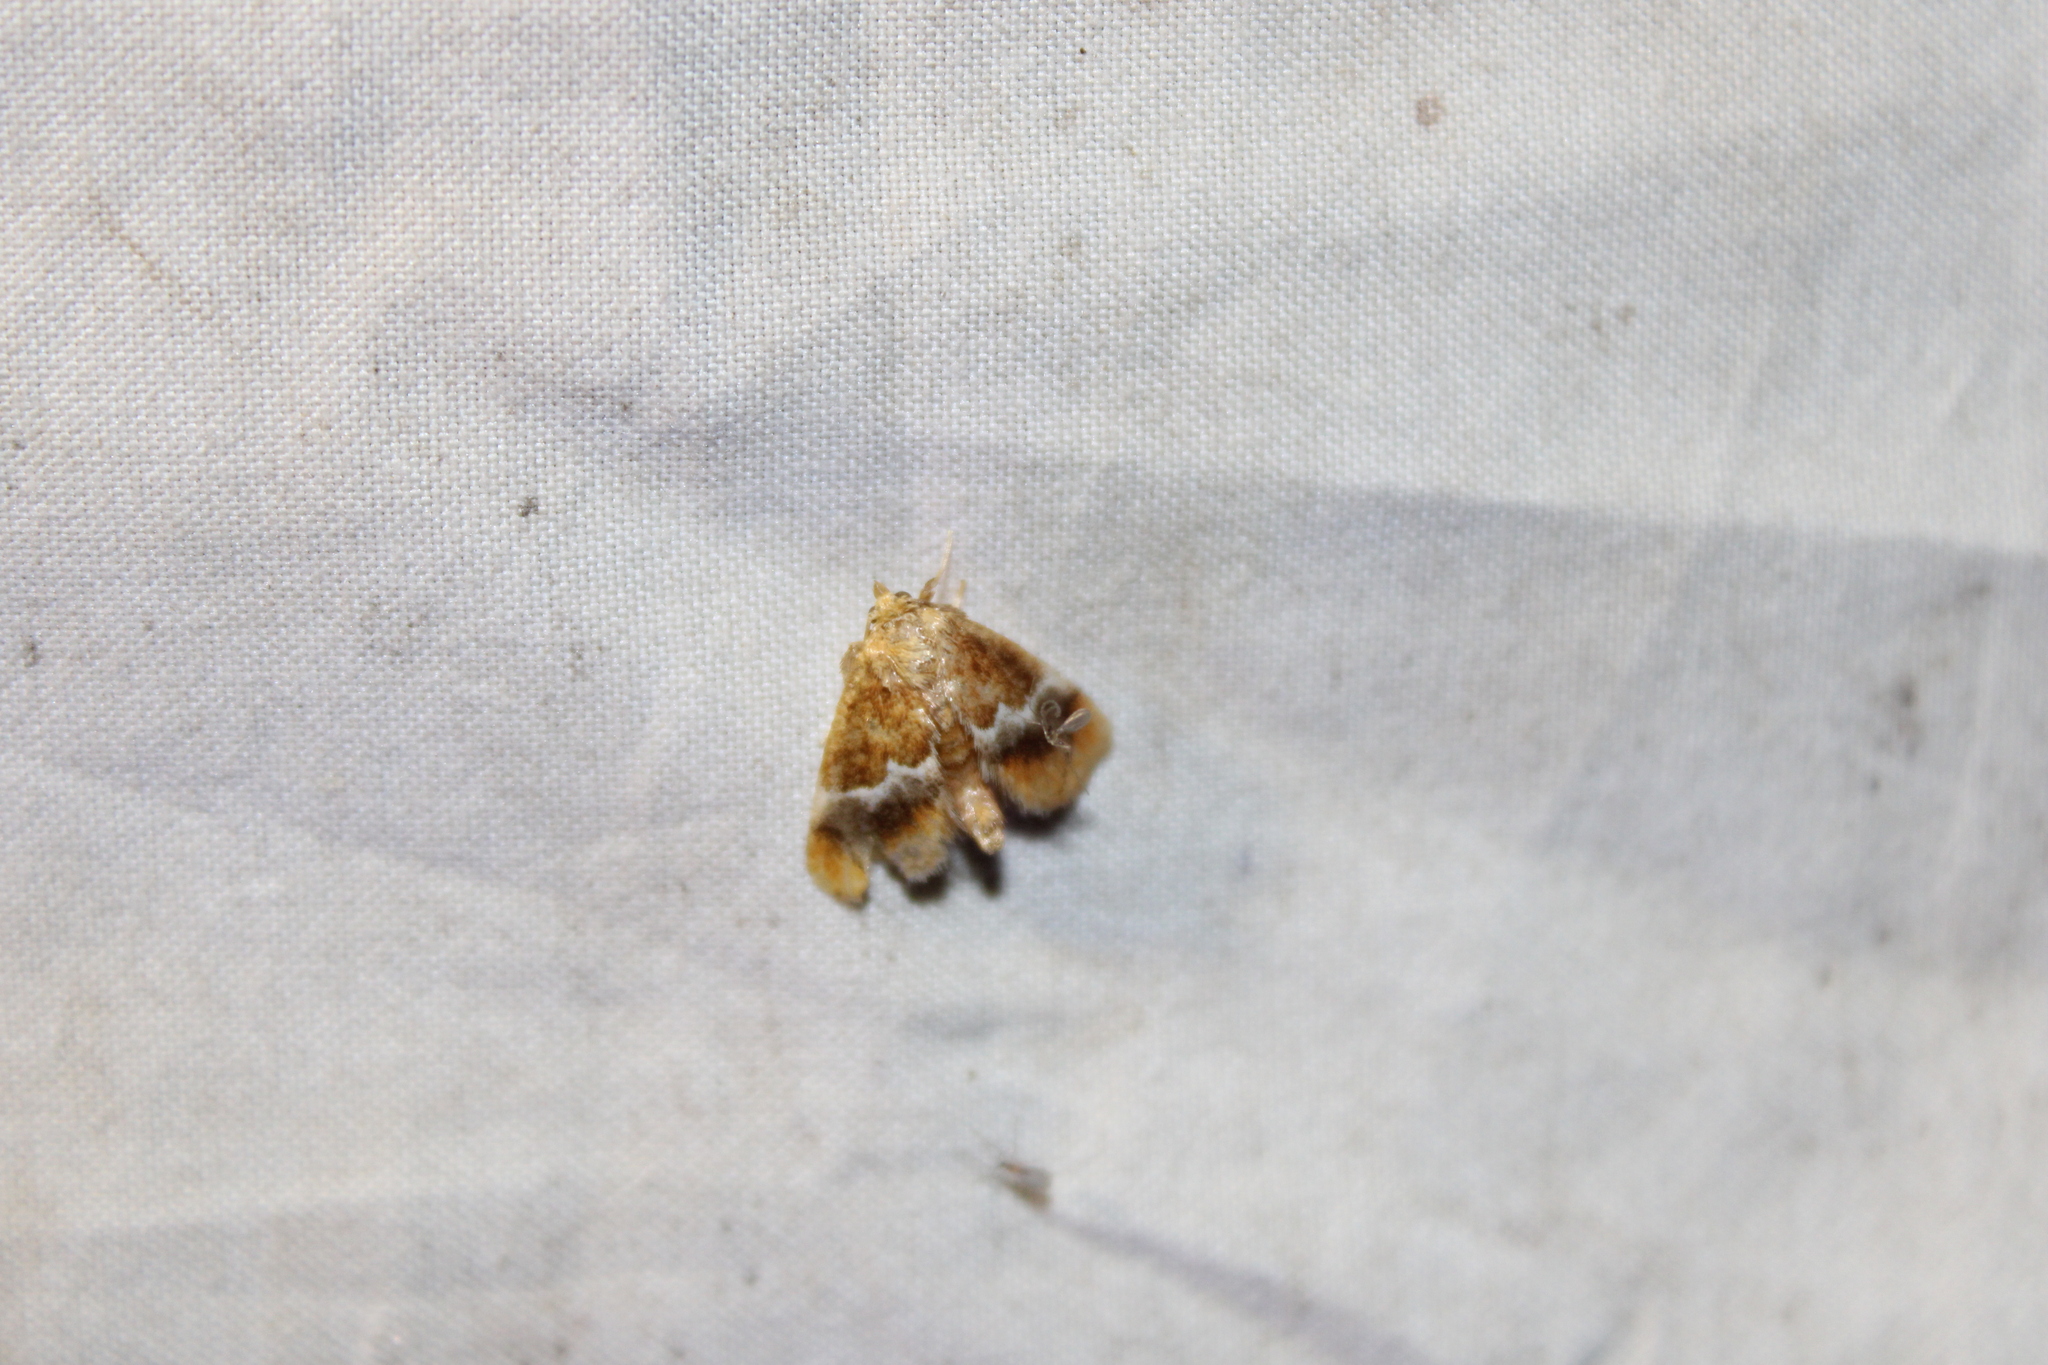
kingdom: Animalia
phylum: Arthropoda
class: Insecta
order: Lepidoptera
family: Limacodidae
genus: Lithacodes
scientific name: Lithacodes fasciola
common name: Yellow-shouldered slug moth
